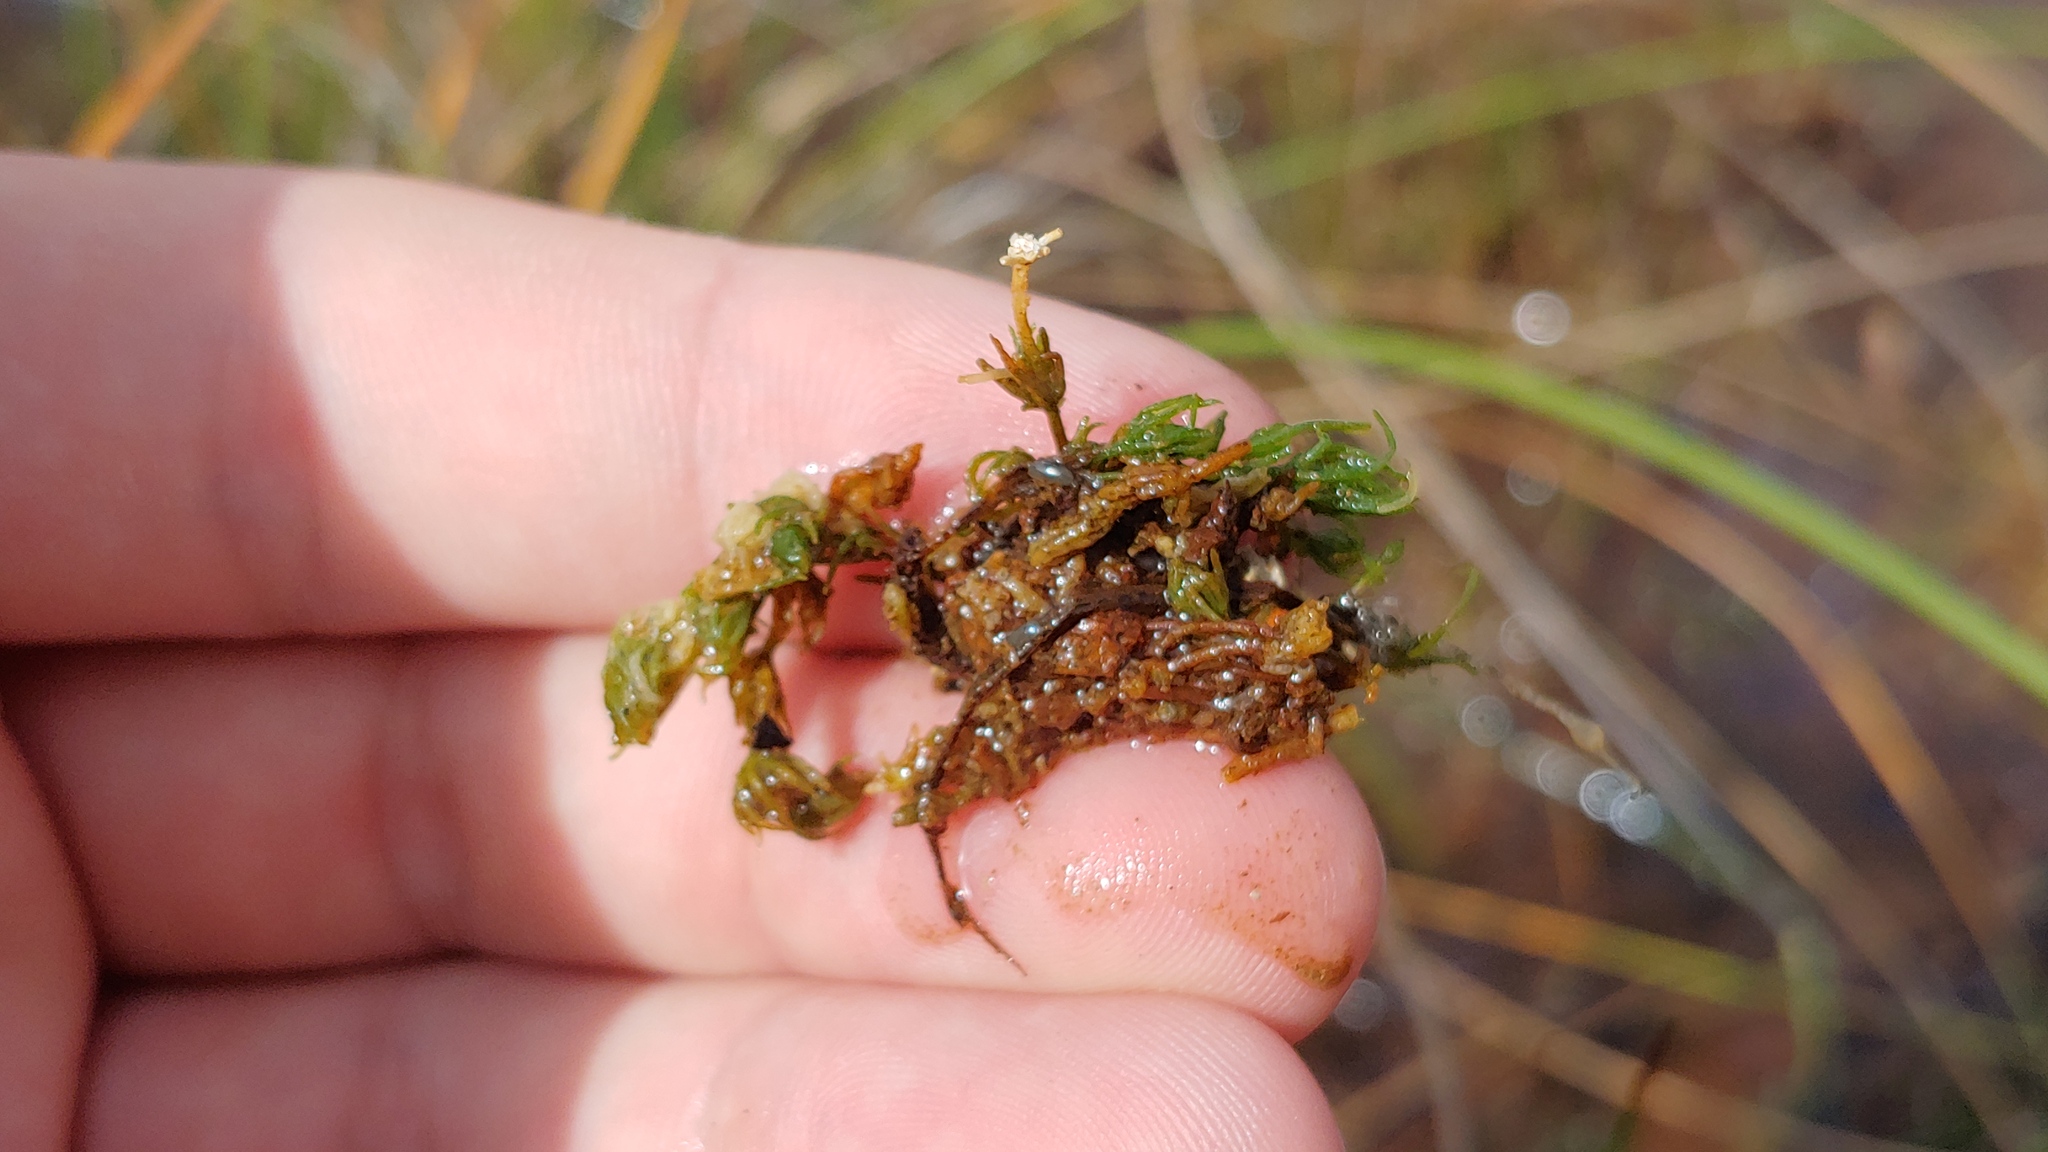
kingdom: Plantae
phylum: Charophyta
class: Charophyceae
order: Charales
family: Characeae
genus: Chara
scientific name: Chara vulgaris
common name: Common stonewort
